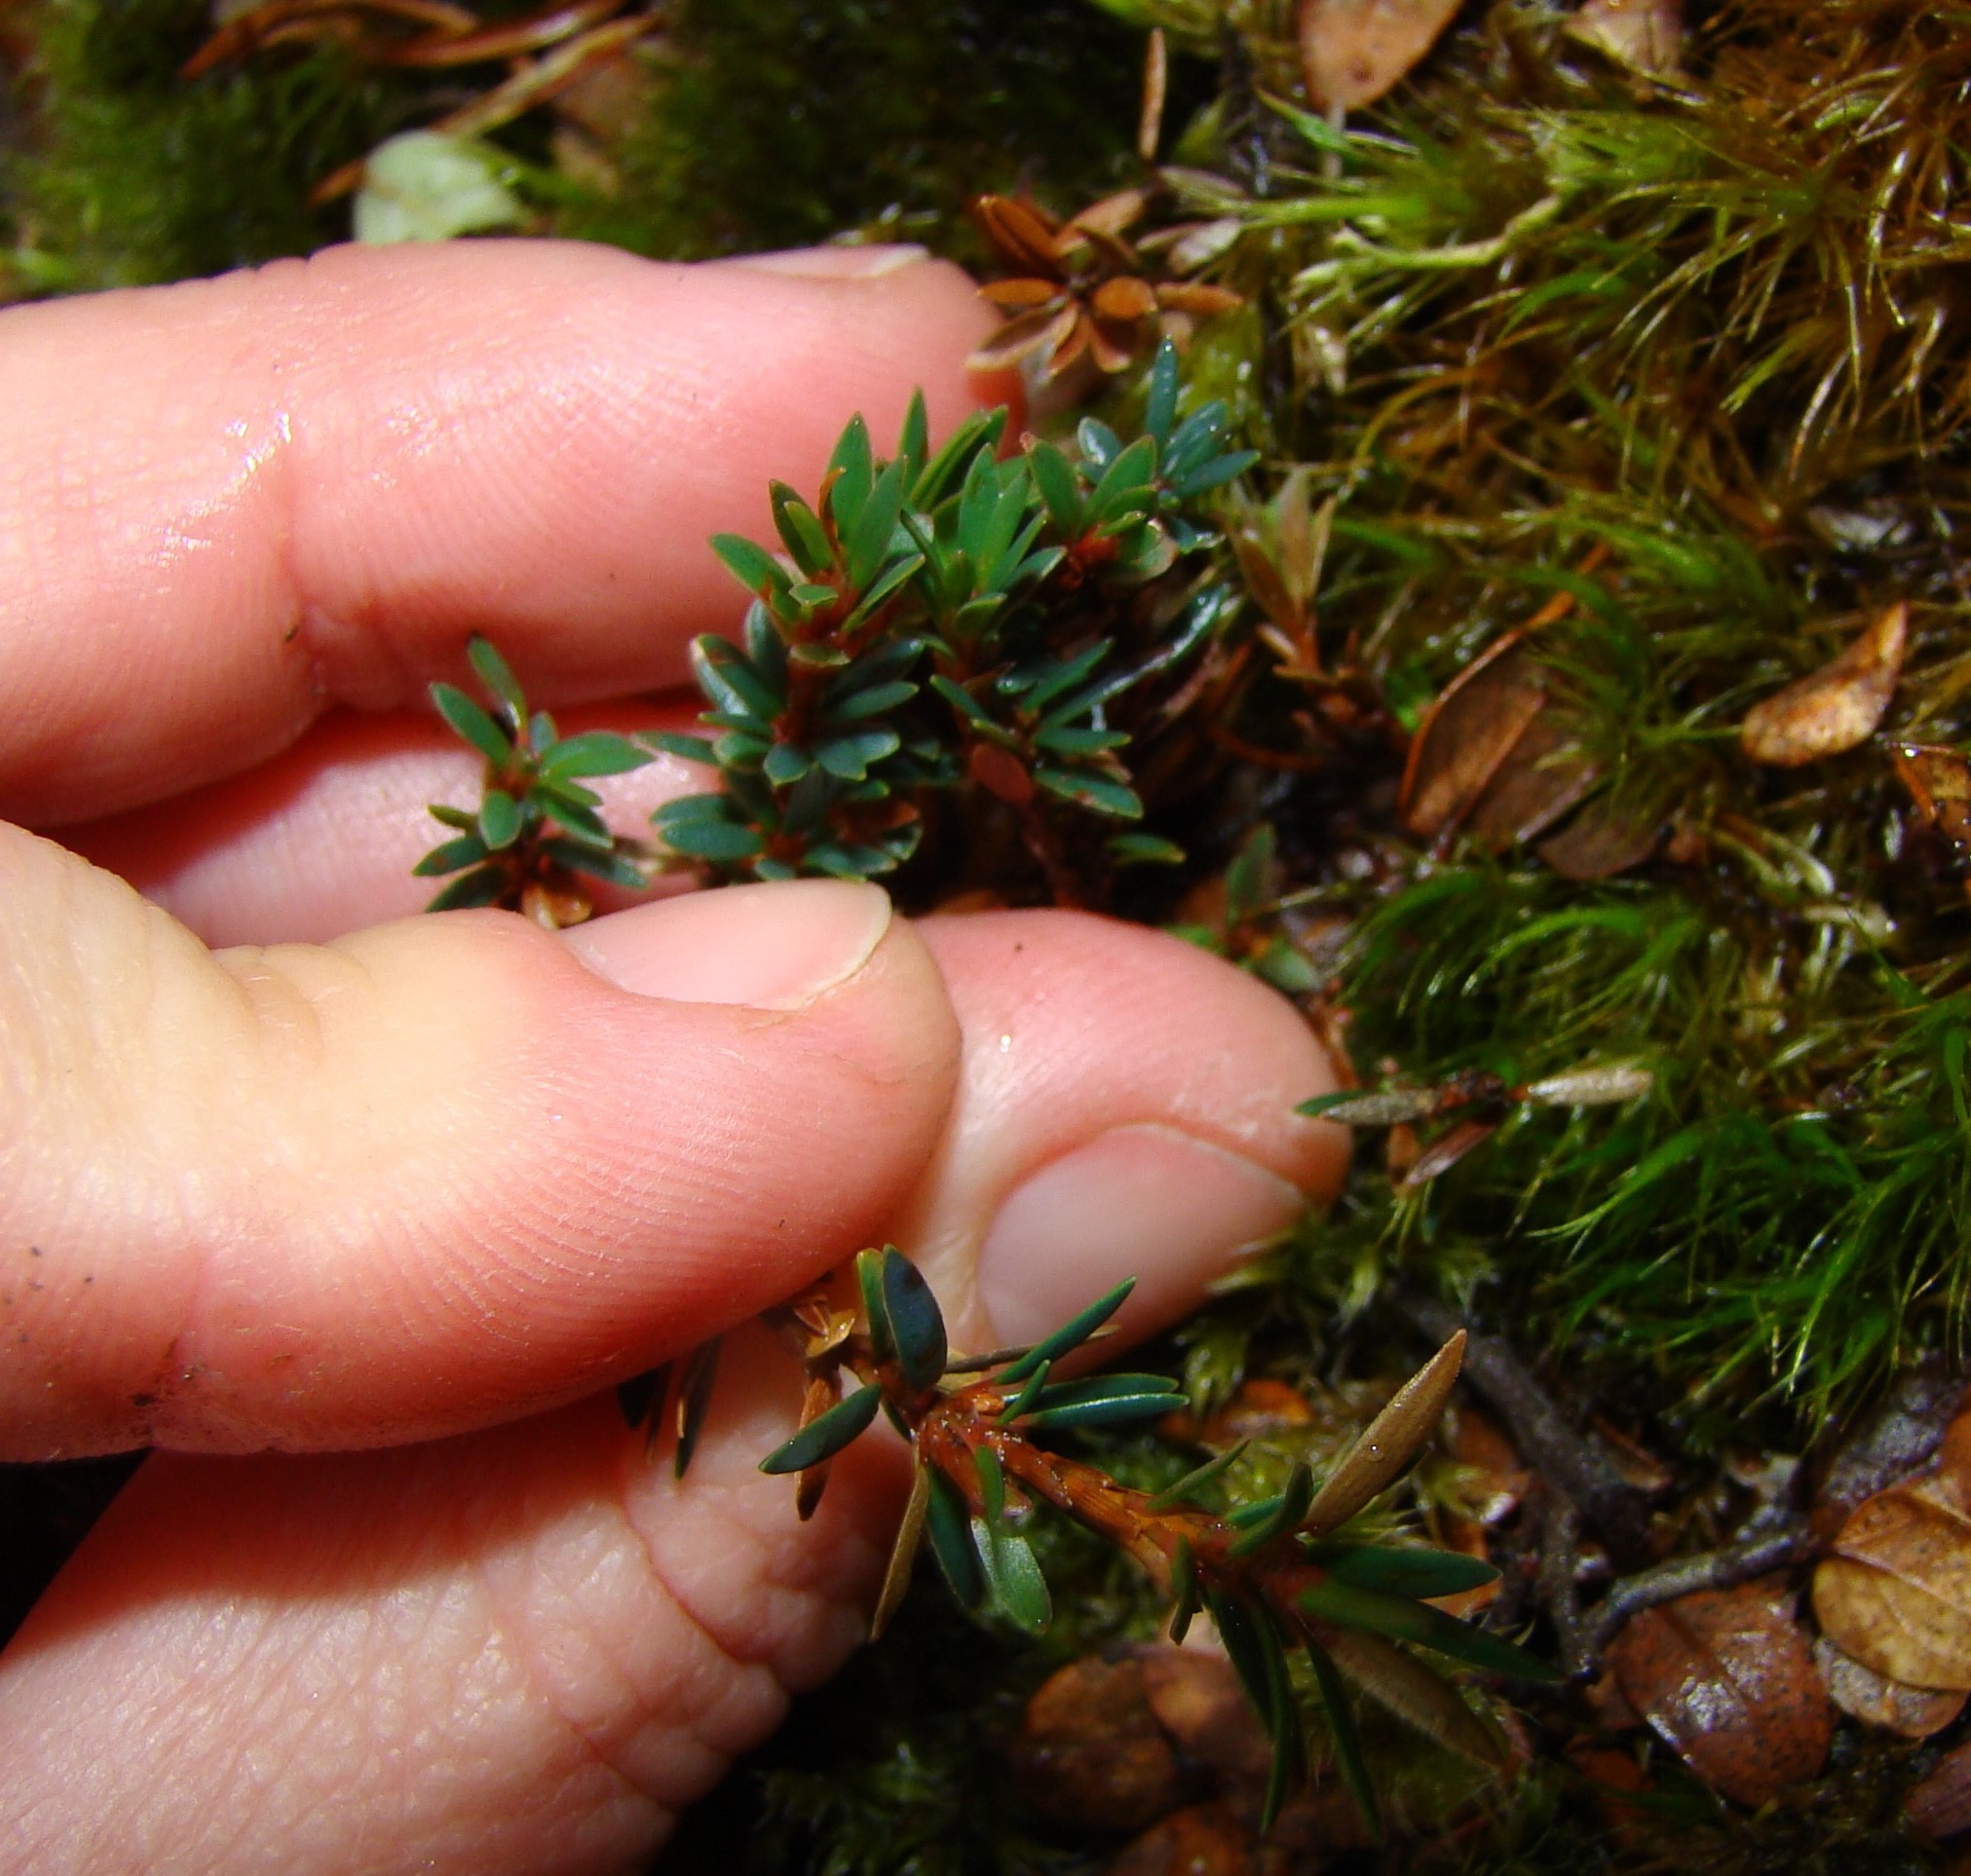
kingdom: Plantae
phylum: Tracheophyta
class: Magnoliopsida
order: Ericales
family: Ericaceae
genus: Pentachondra
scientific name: Pentachondra pumila
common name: Carpet-heath
